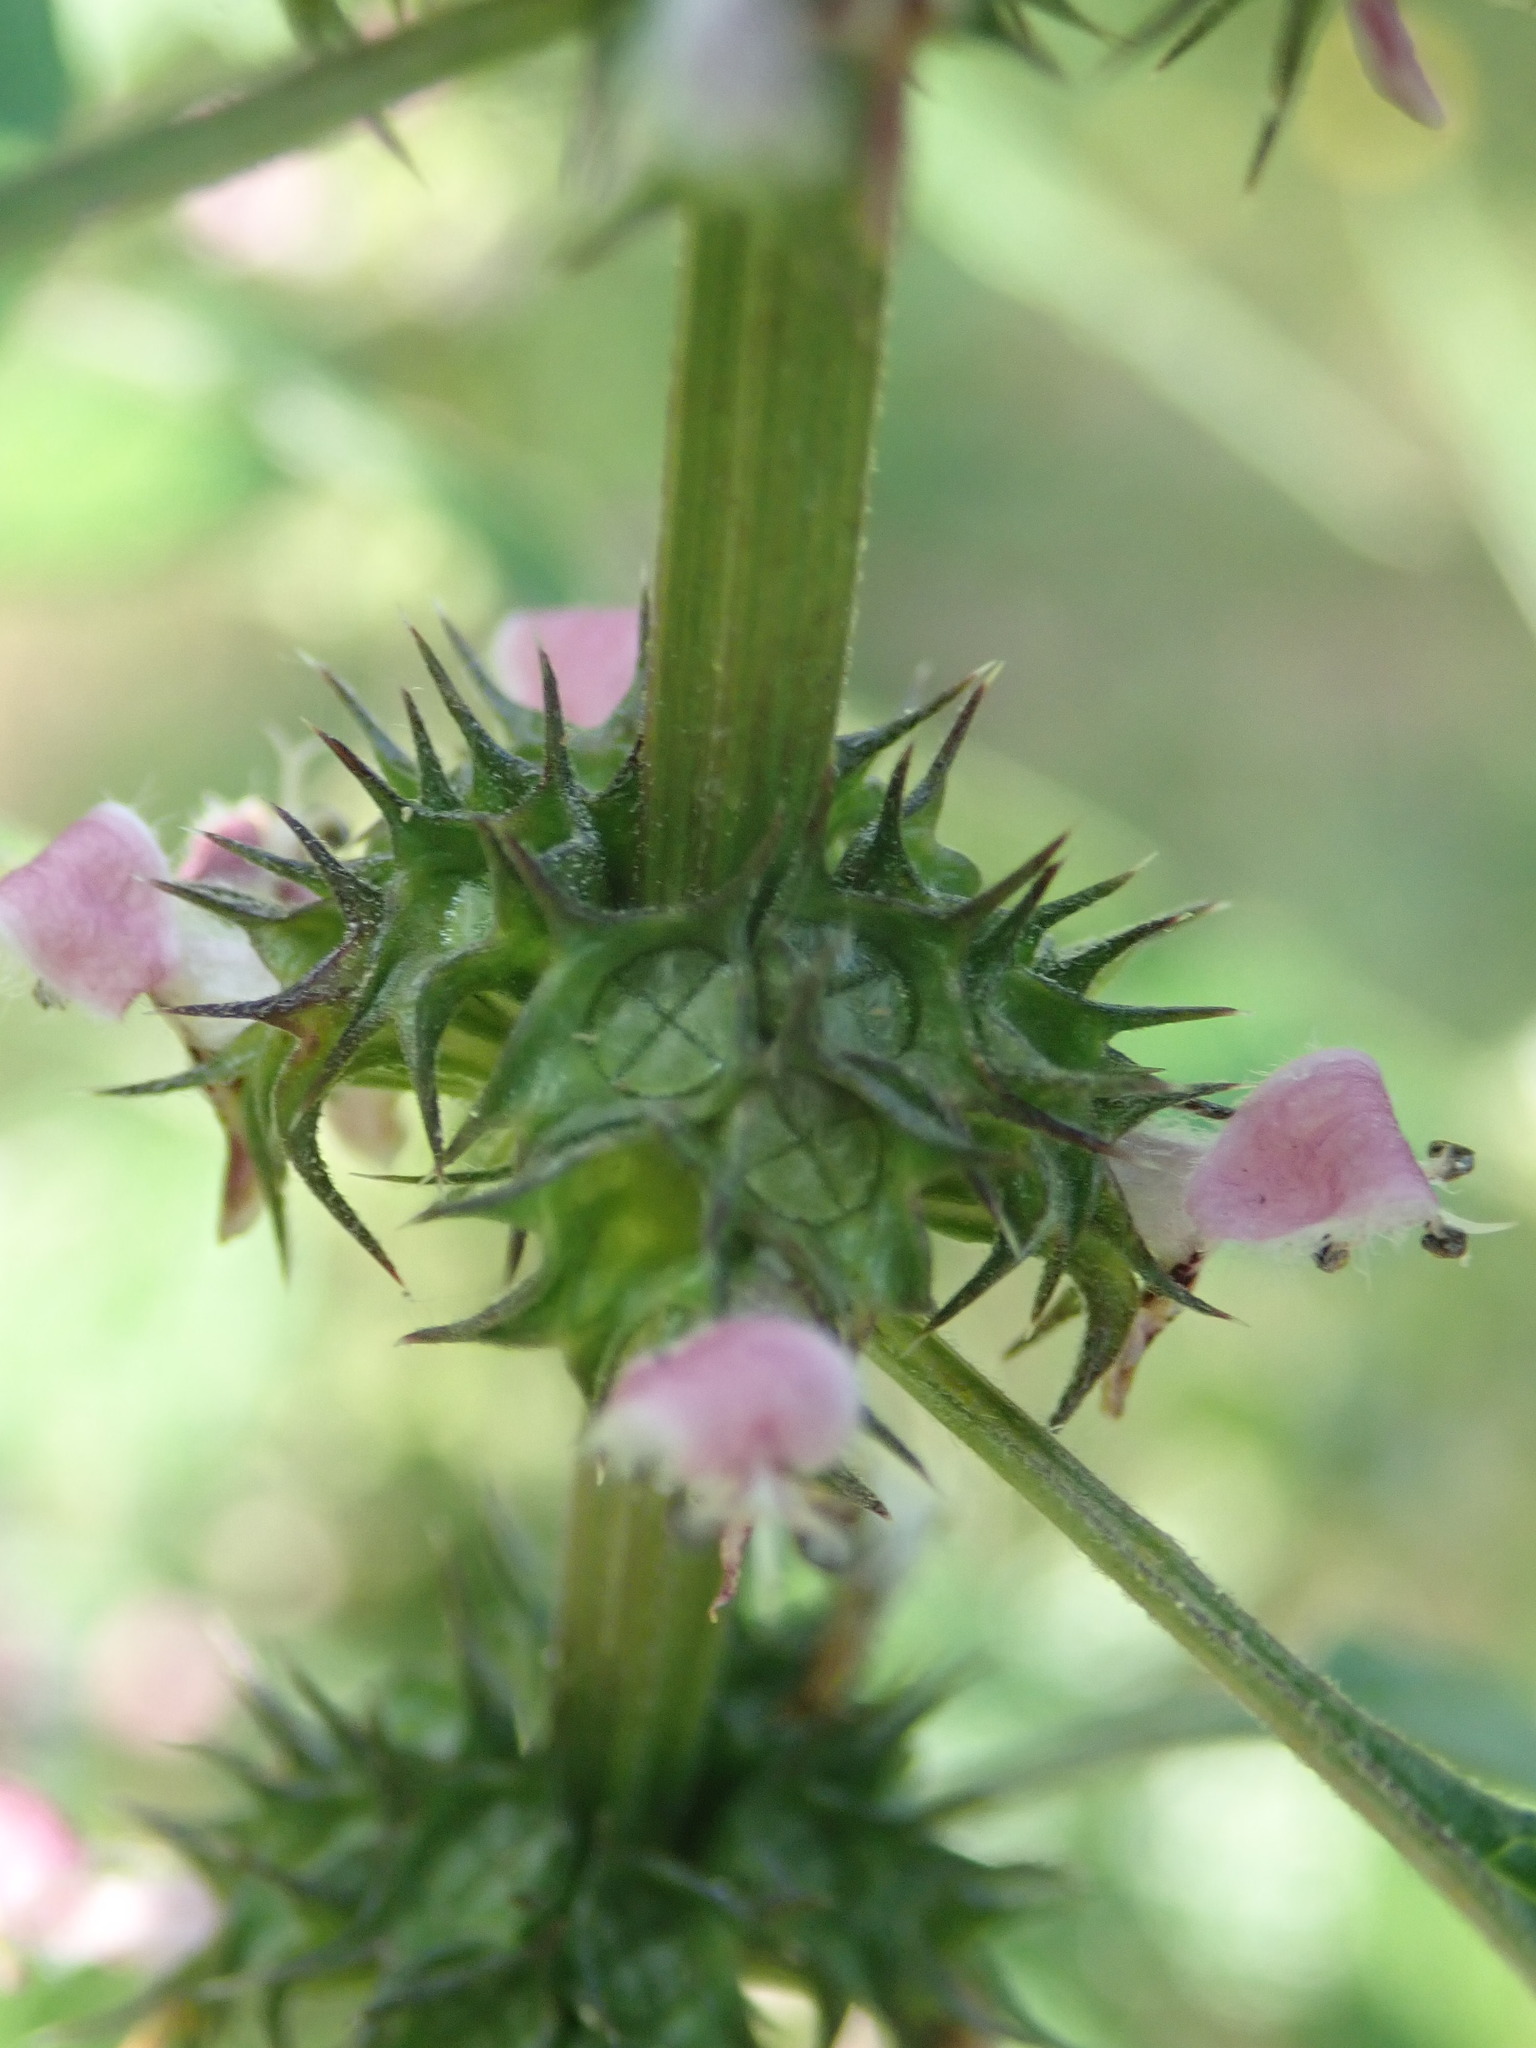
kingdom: Plantae
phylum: Tracheophyta
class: Magnoliopsida
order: Lamiales
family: Lamiaceae
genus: Leonurus
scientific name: Leonurus cardiaca
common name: Motherwort
